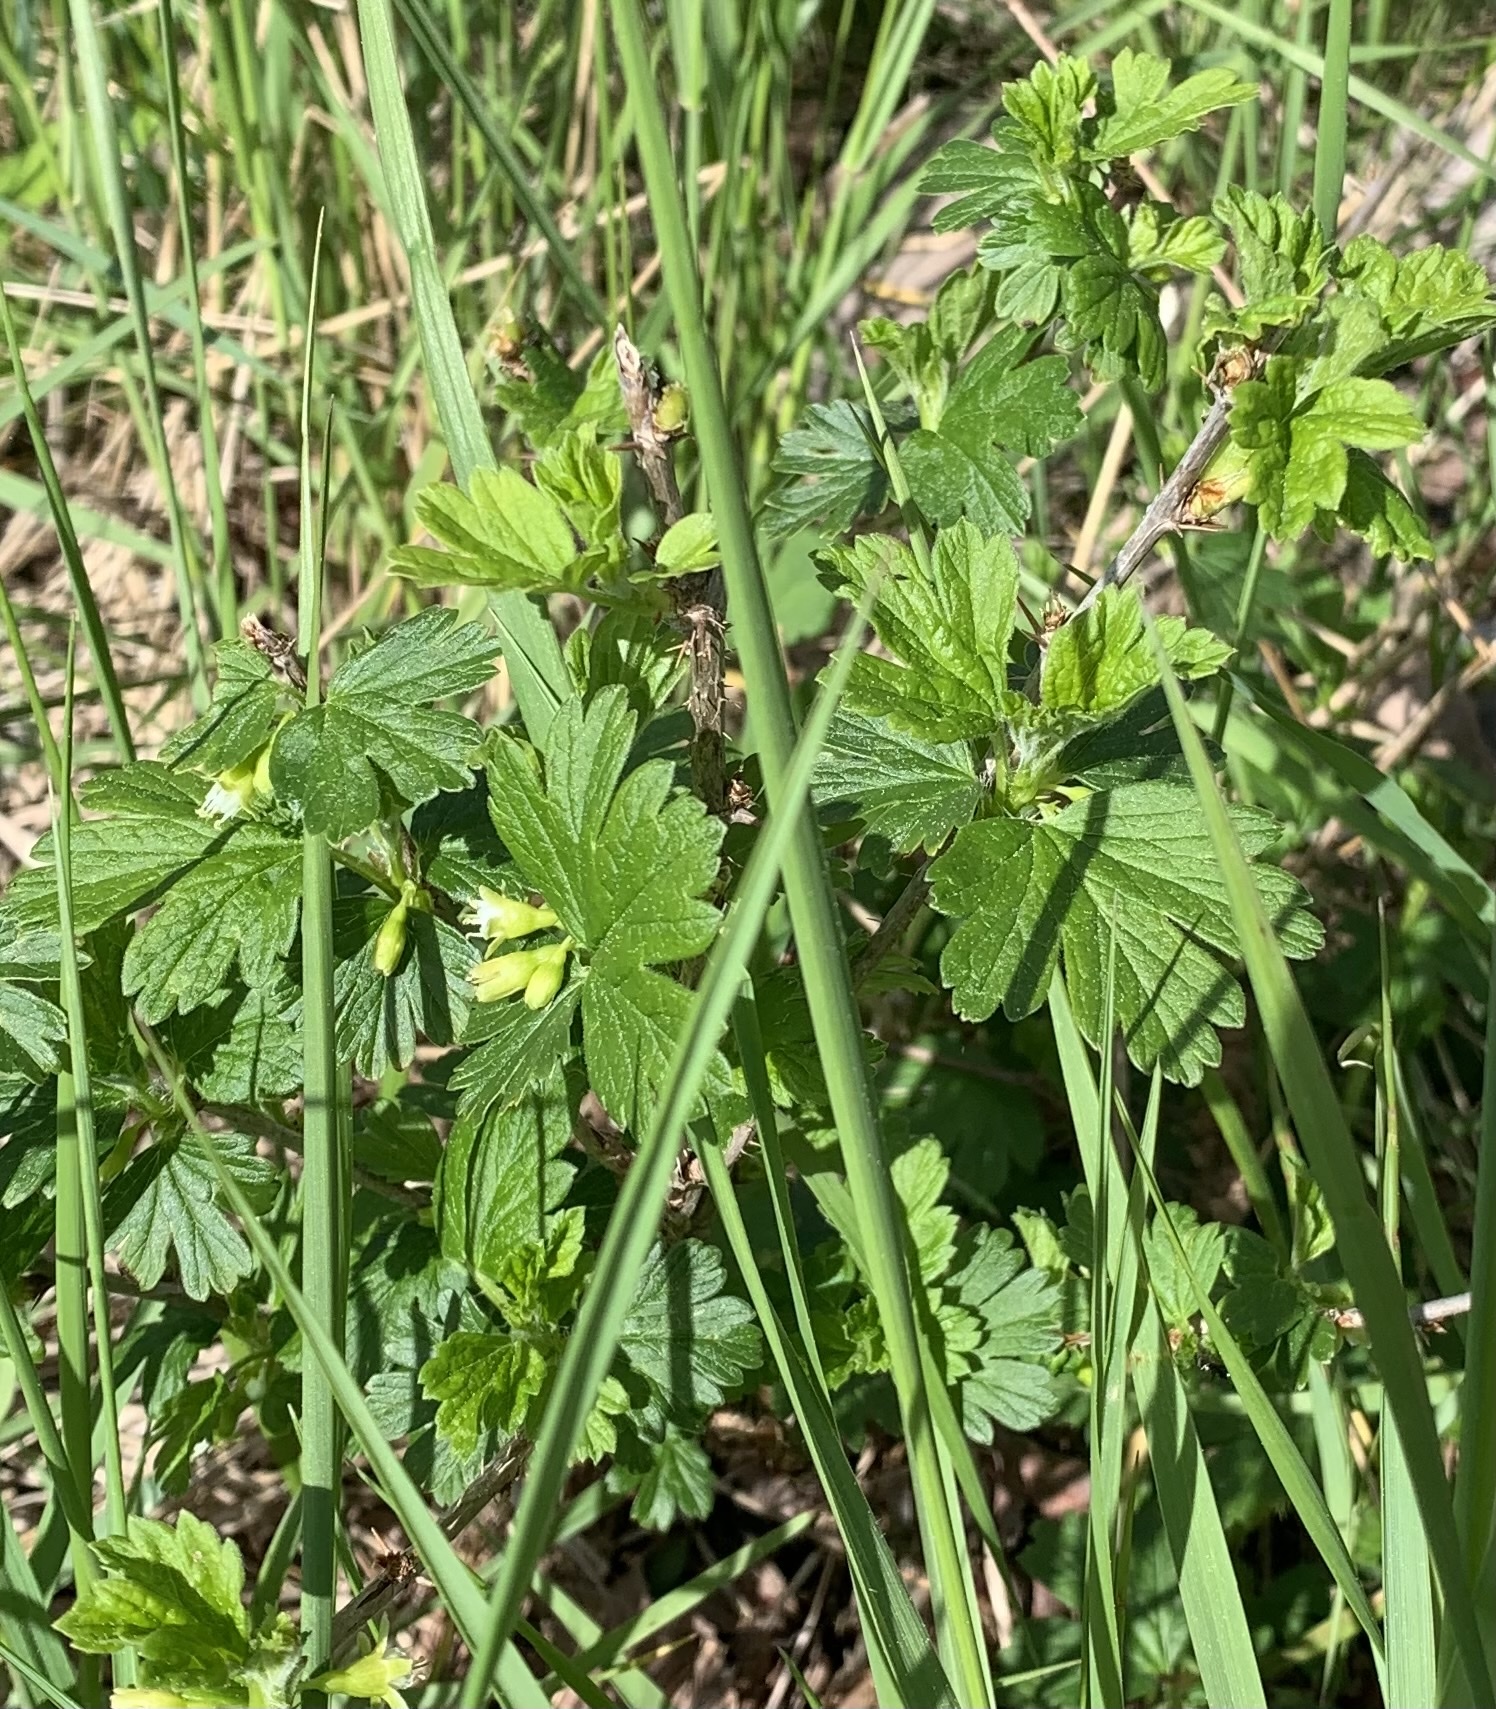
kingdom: Plantae
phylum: Tracheophyta
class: Magnoliopsida
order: Saxifragales
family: Grossulariaceae
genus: Ribes
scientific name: Ribes hirtellum
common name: Hairy gooseberry
